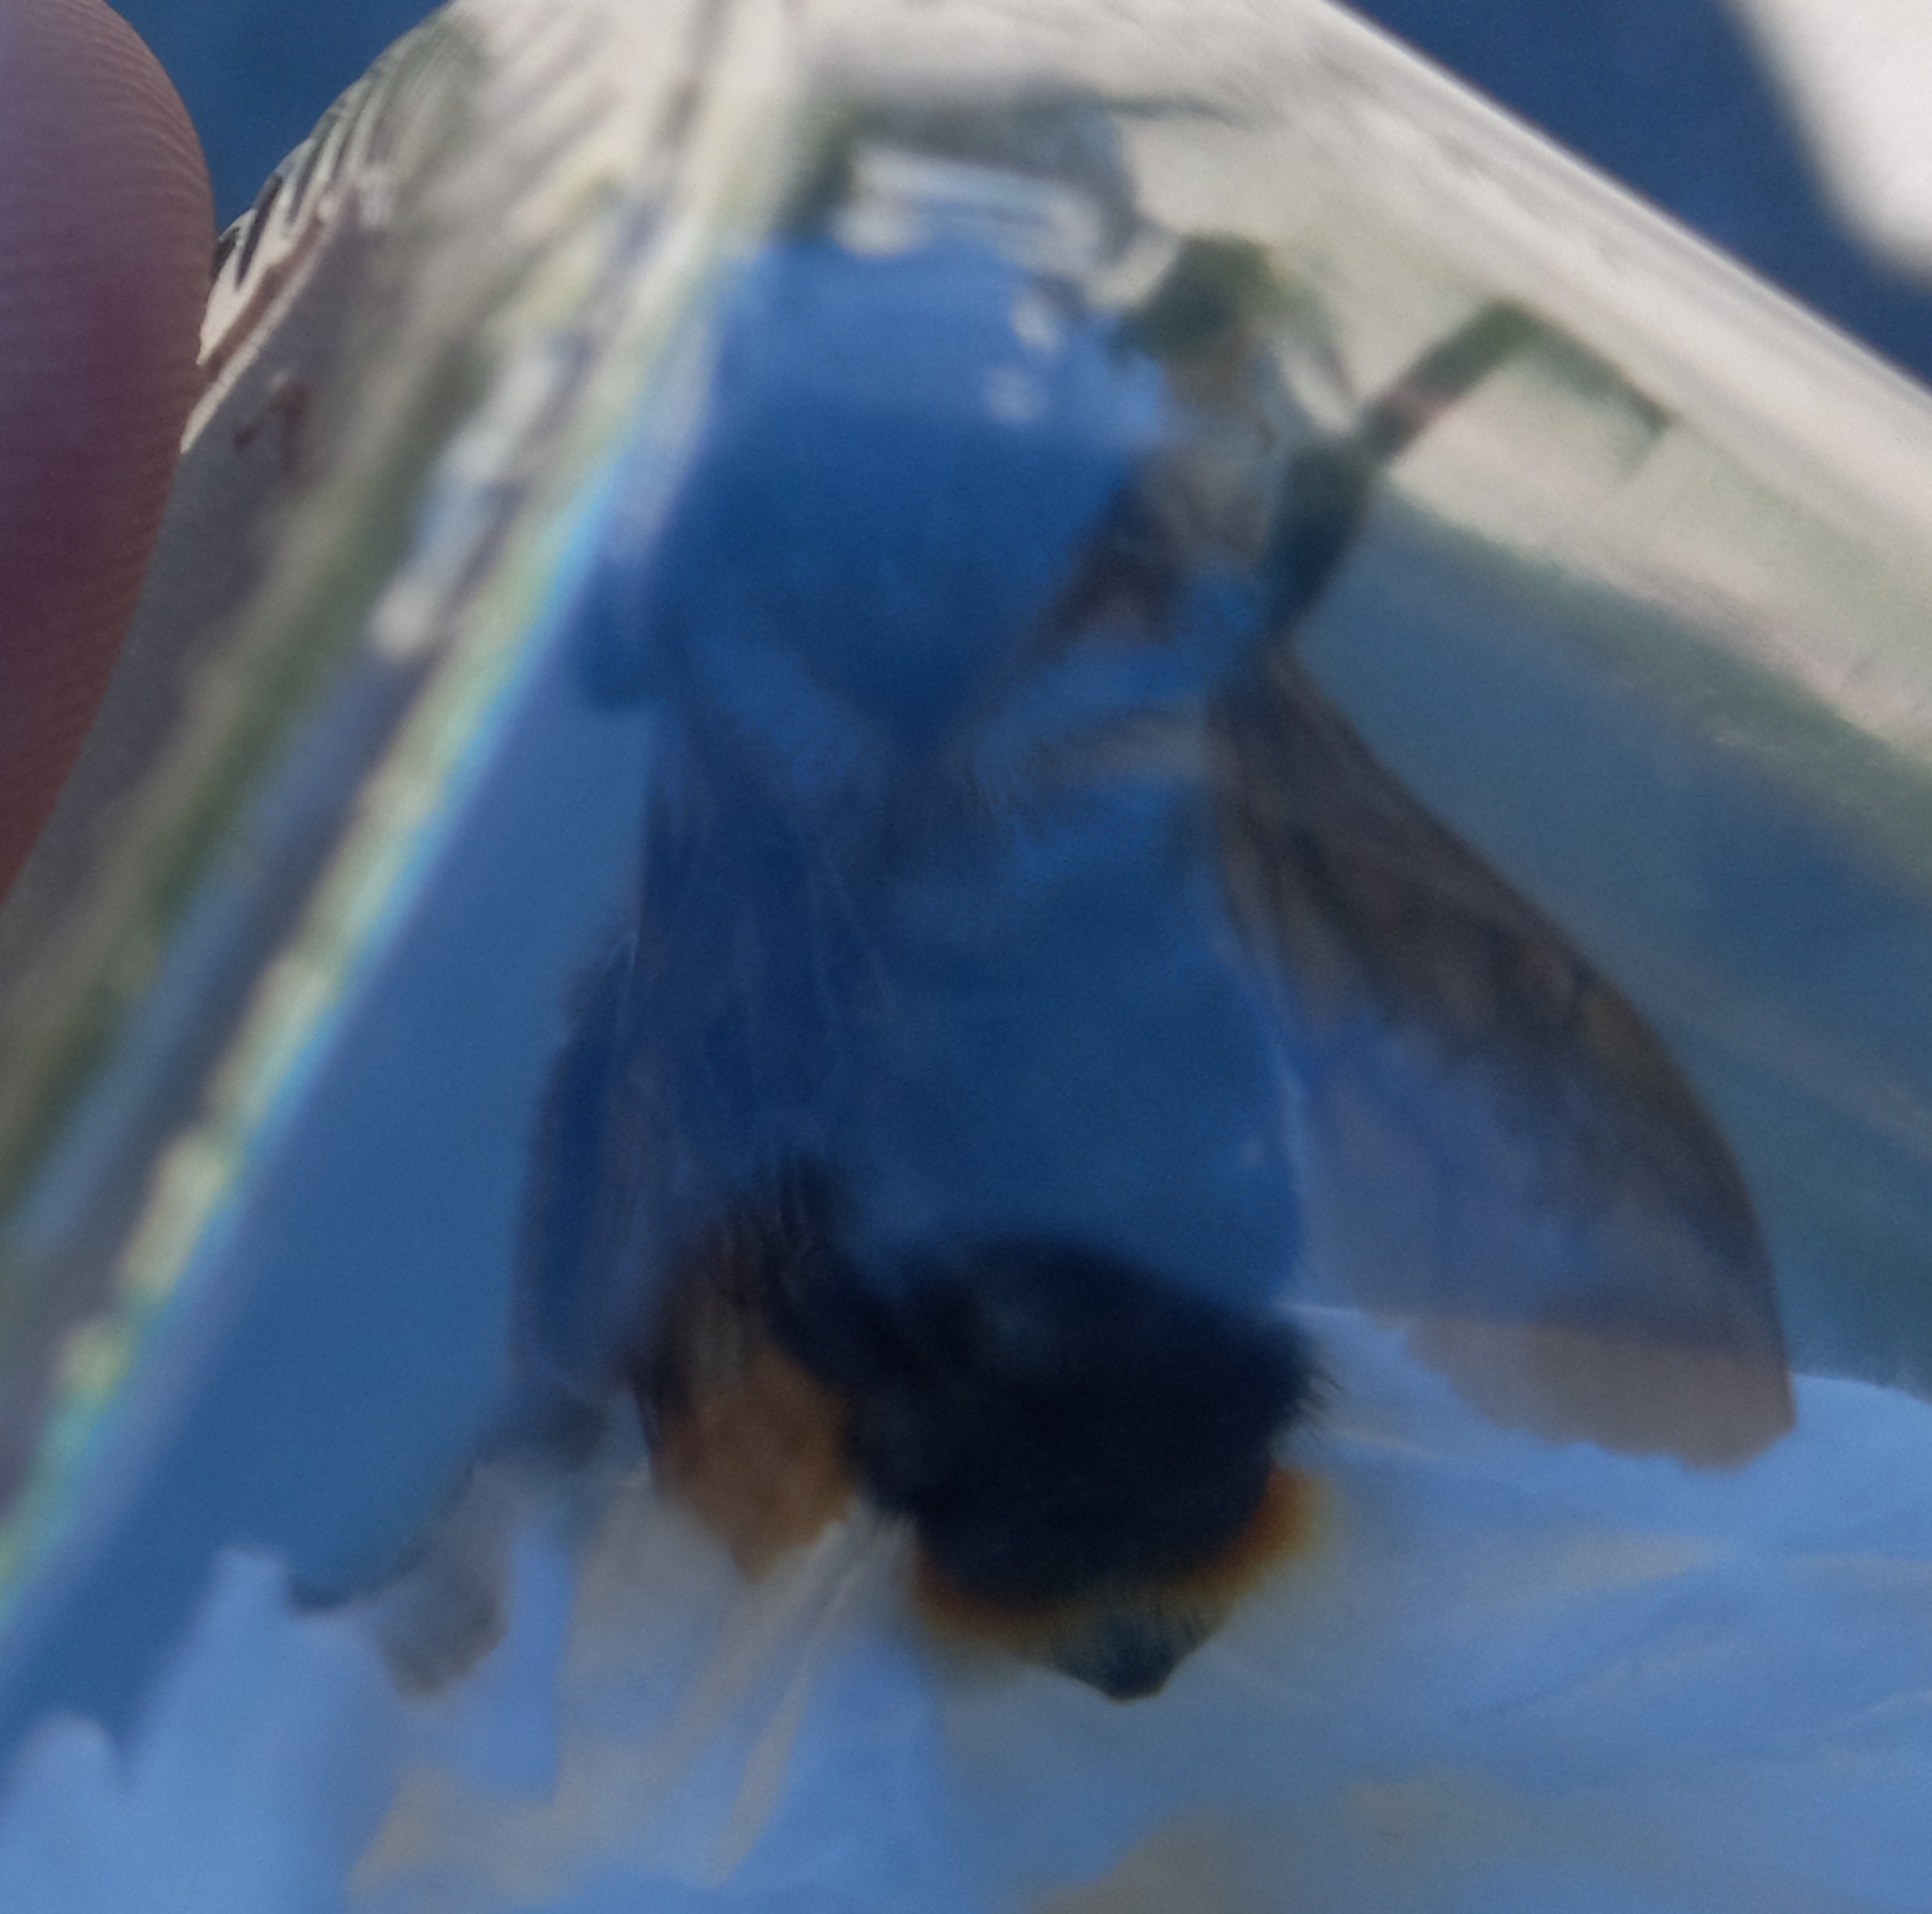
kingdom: Animalia
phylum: Arthropoda
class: Insecta
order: Hymenoptera
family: Apidae
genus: Bombus
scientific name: Bombus rupestris
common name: Hill cuckoo-bee
